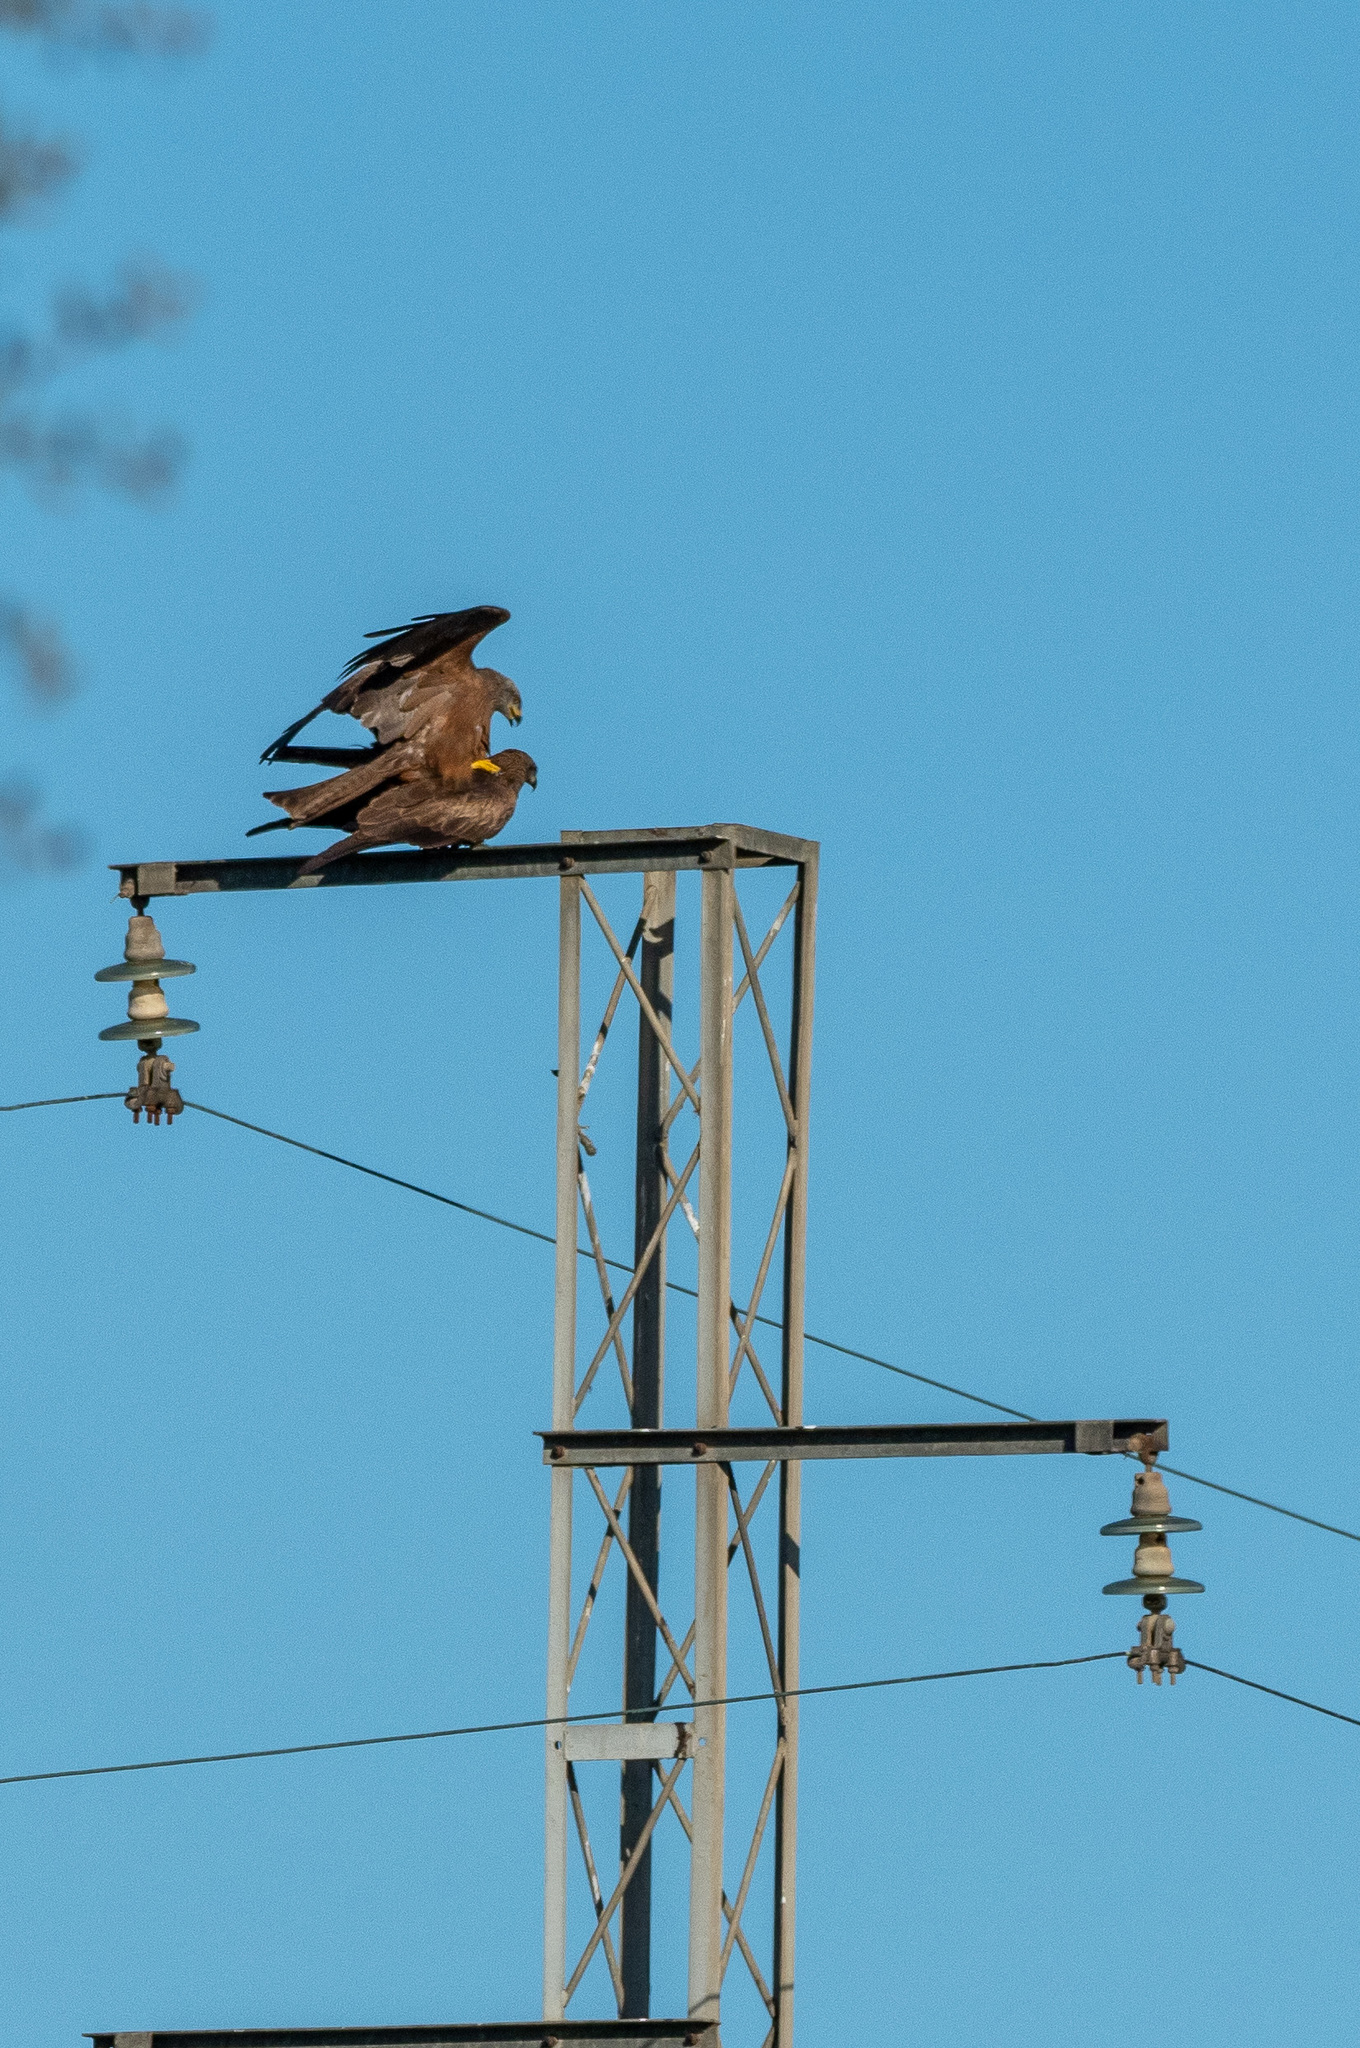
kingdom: Animalia
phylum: Chordata
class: Aves
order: Accipitriformes
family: Accipitridae
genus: Milvus
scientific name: Milvus migrans
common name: Black kite
